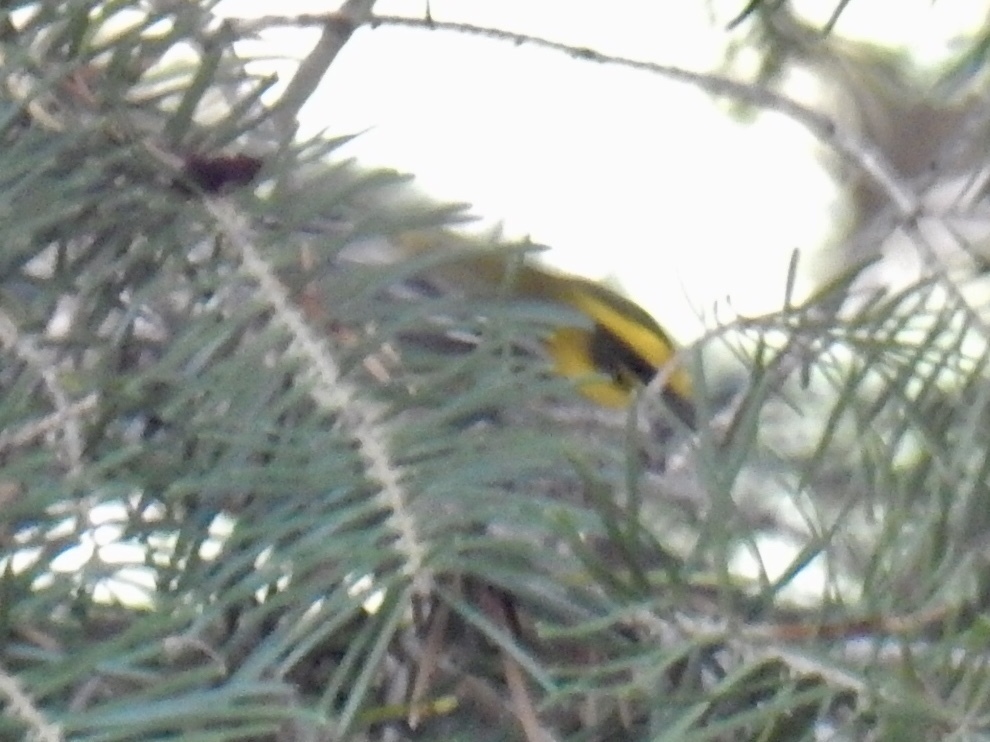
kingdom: Animalia
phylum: Chordata
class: Aves
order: Passeriformes
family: Parulidae
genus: Setophaga
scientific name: Setophaga townsendi
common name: Townsend's warbler
